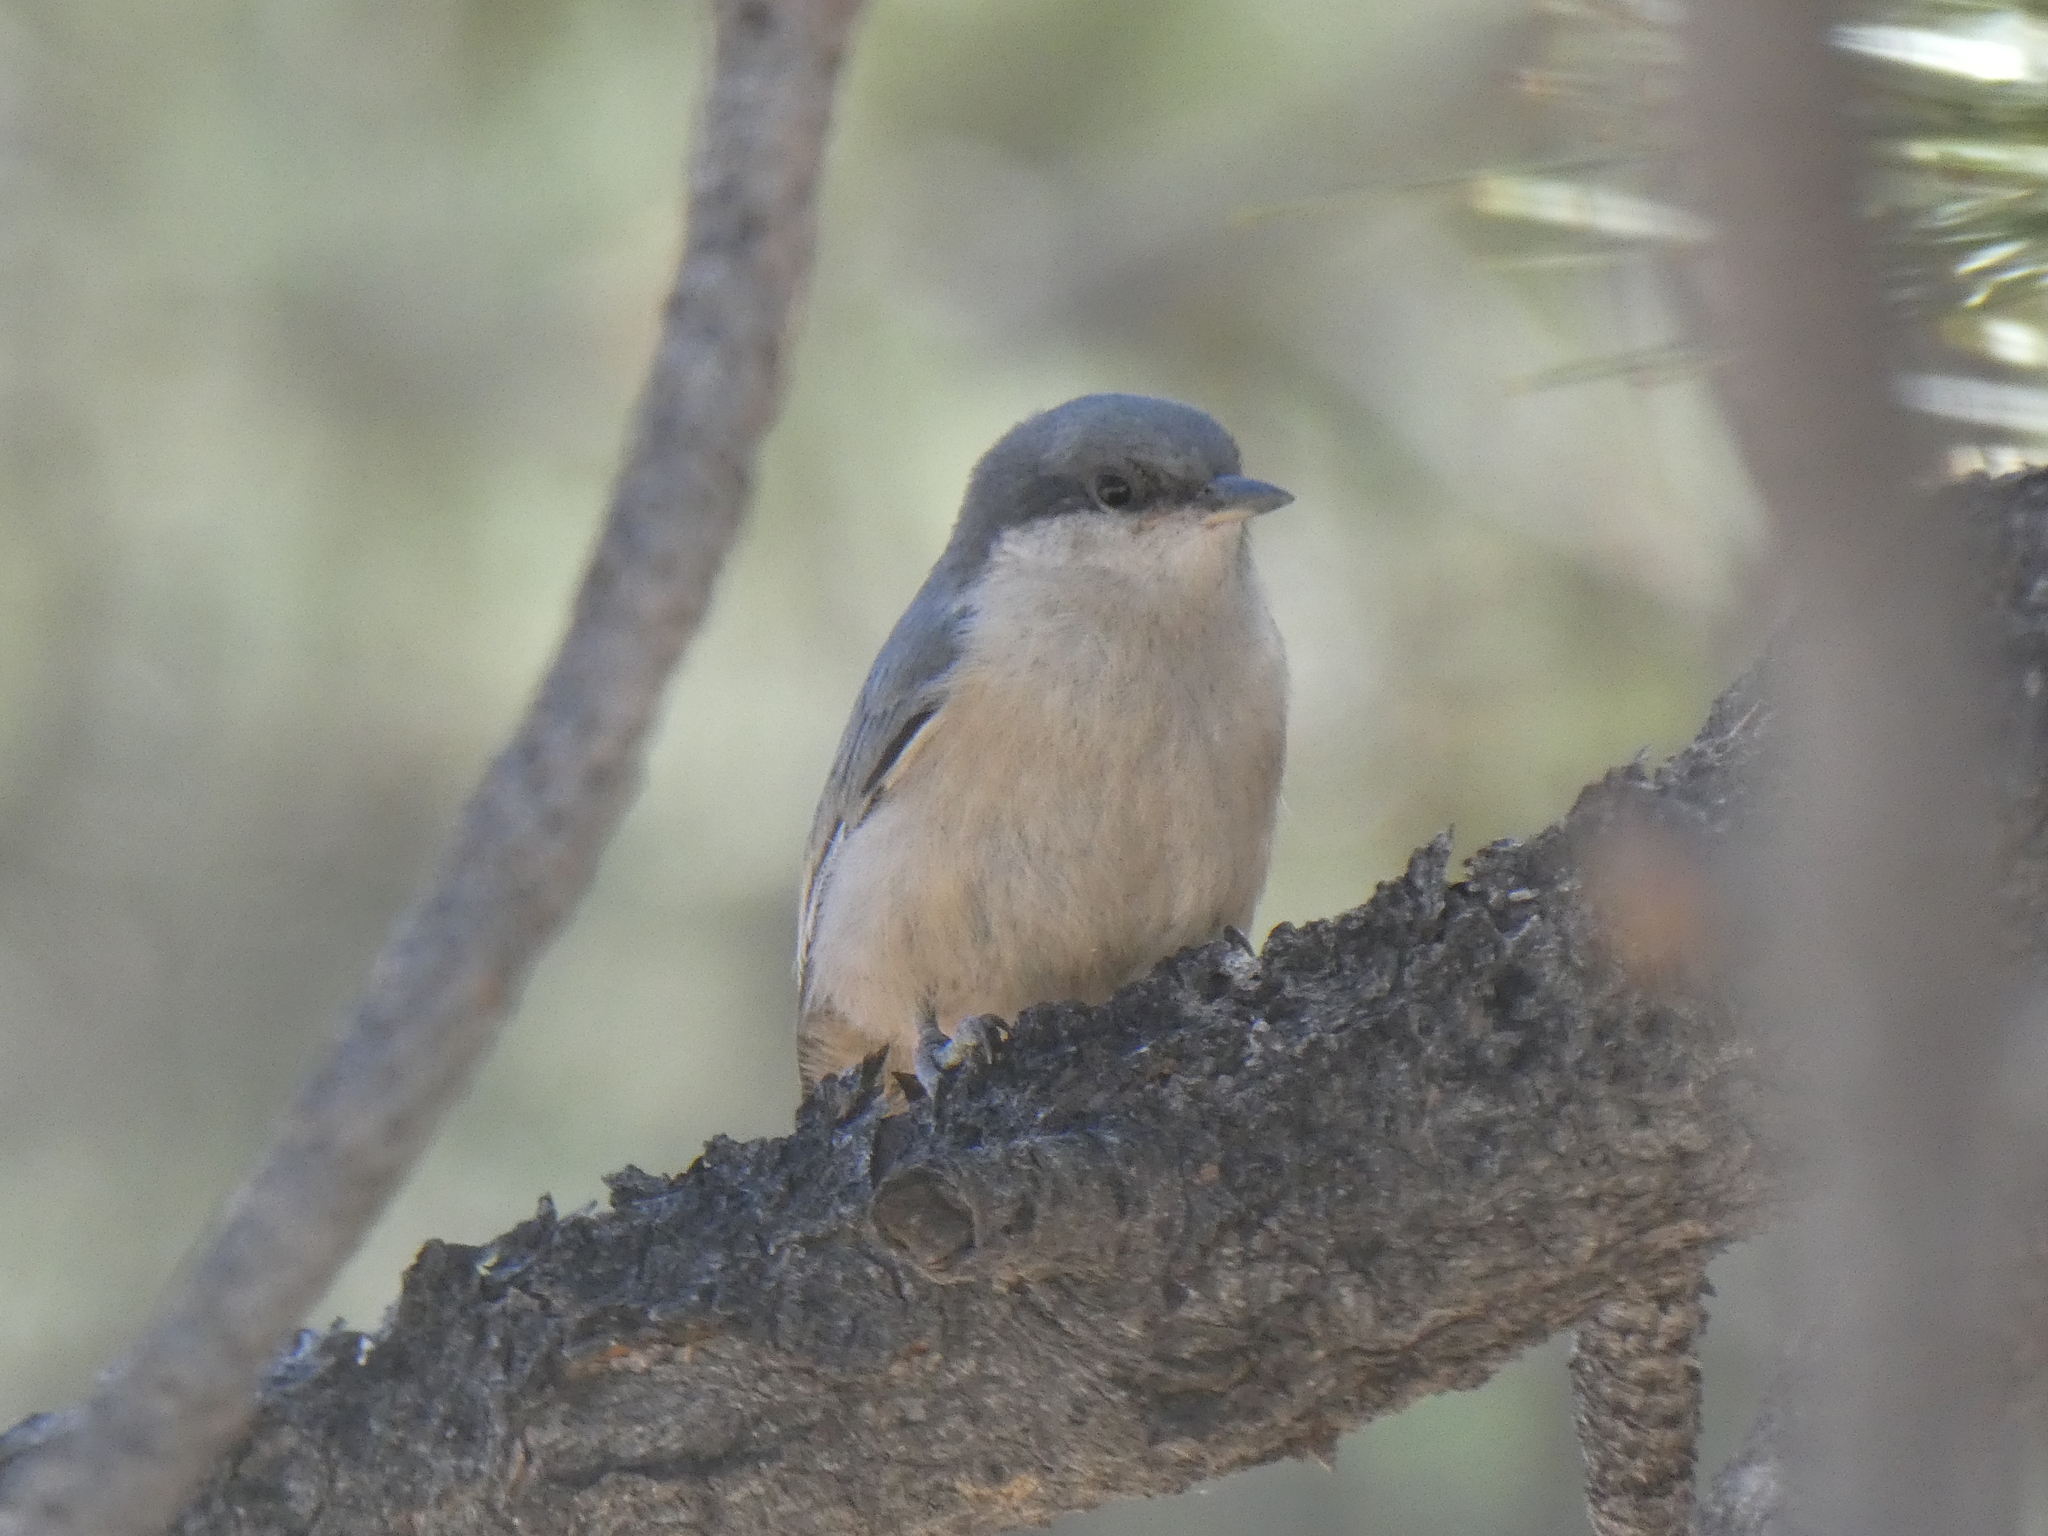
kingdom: Animalia
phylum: Chordata
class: Aves
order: Passeriformes
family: Sittidae
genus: Sitta
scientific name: Sitta pygmaea
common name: Pygmy nuthatch
